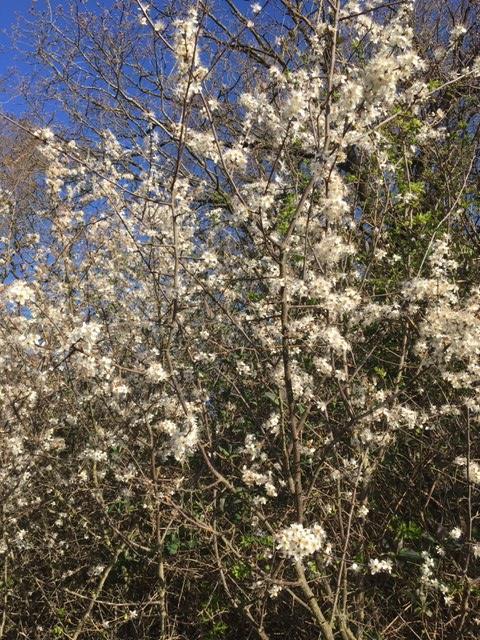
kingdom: Plantae
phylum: Tracheophyta
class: Magnoliopsida
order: Rosales
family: Rosaceae
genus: Prunus
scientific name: Prunus spinosa
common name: Blackthorn
